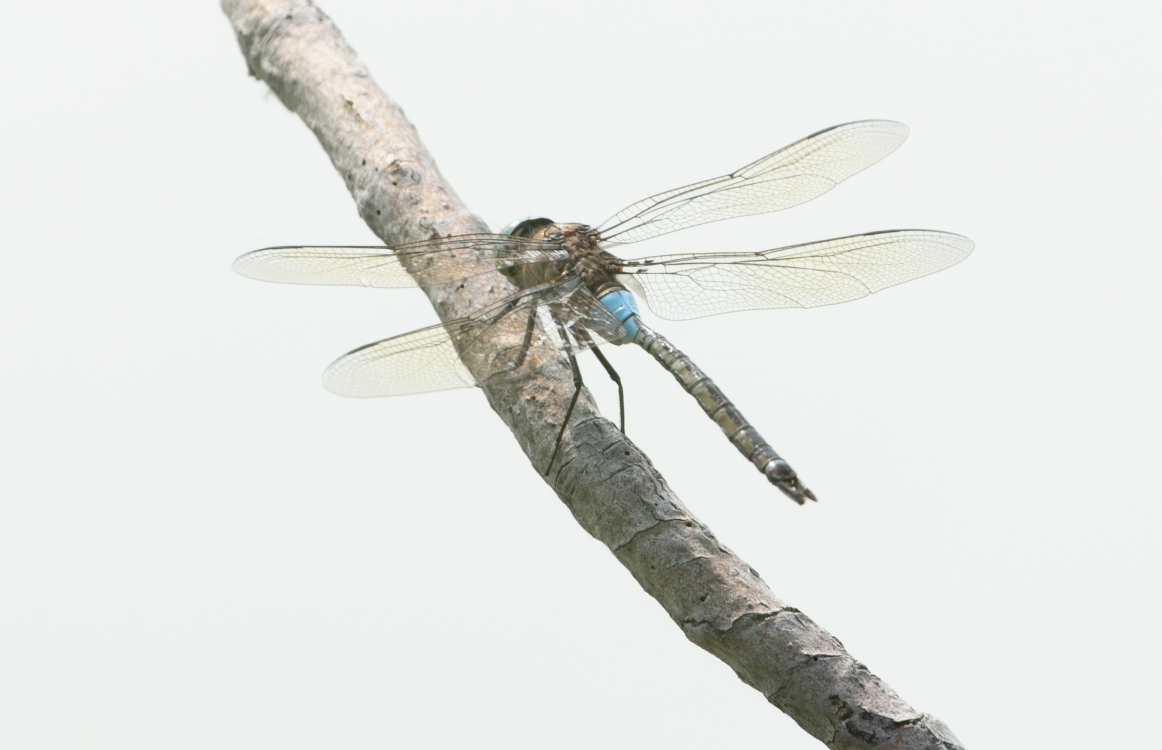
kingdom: Animalia
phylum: Arthropoda
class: Insecta
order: Odonata
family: Aeshnidae
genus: Anax
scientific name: Anax parthenope
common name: Lesser emperor
